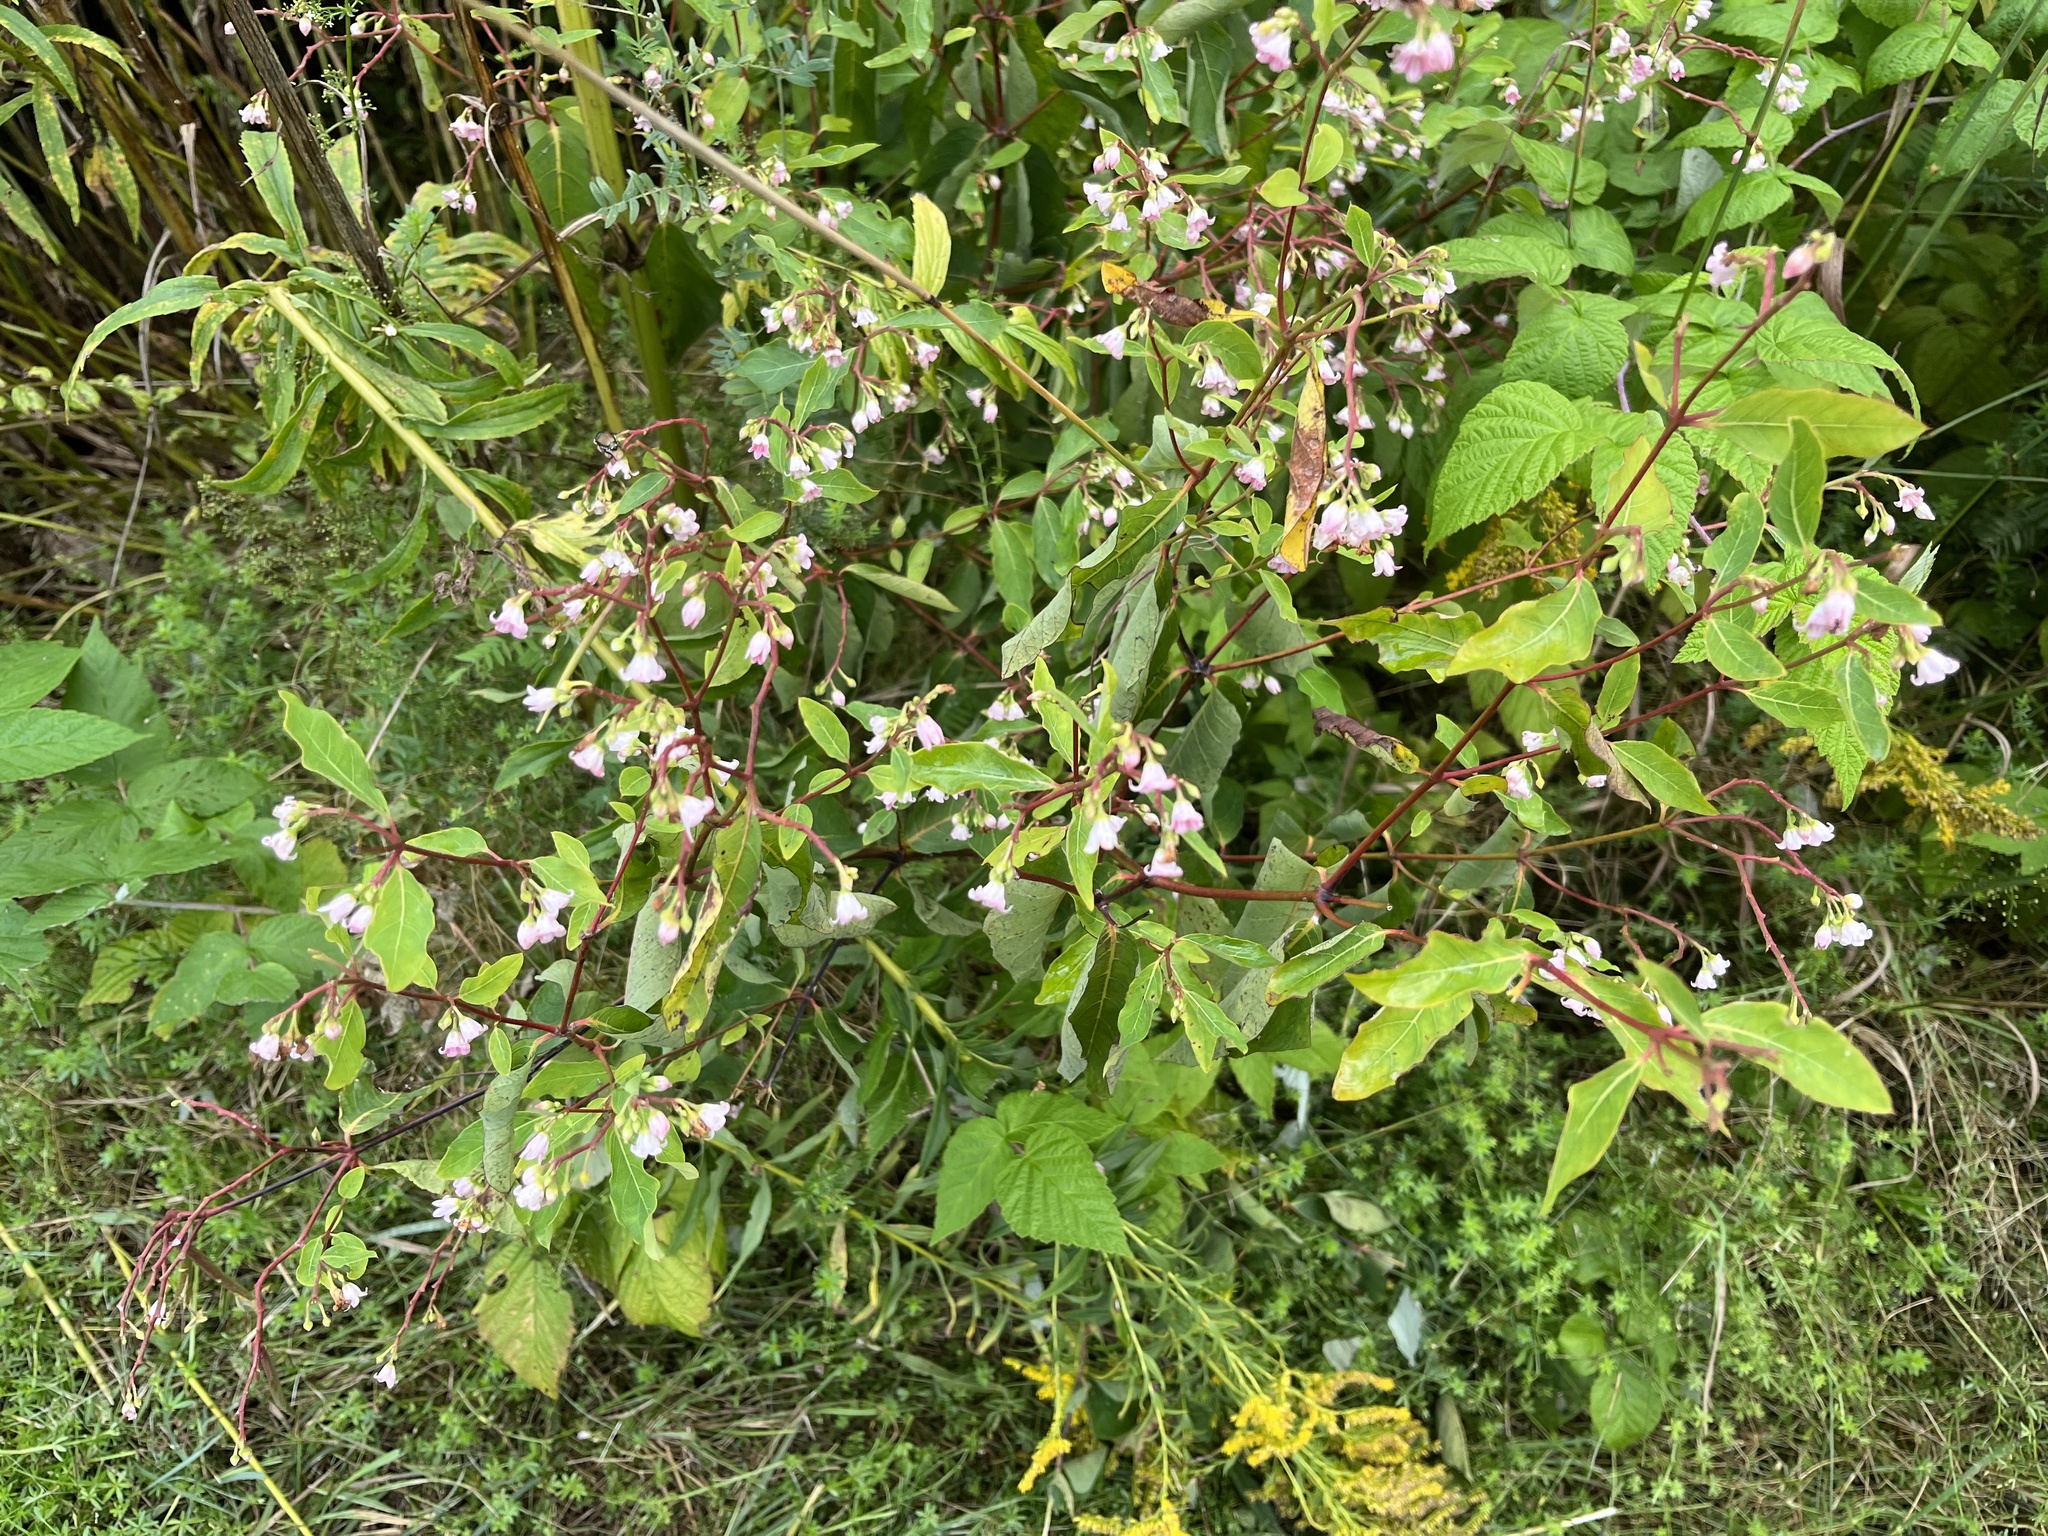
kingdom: Plantae
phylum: Tracheophyta
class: Magnoliopsida
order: Gentianales
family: Apocynaceae
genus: Apocynum
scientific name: Apocynum androsaemifolium
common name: Spreading dogbane
